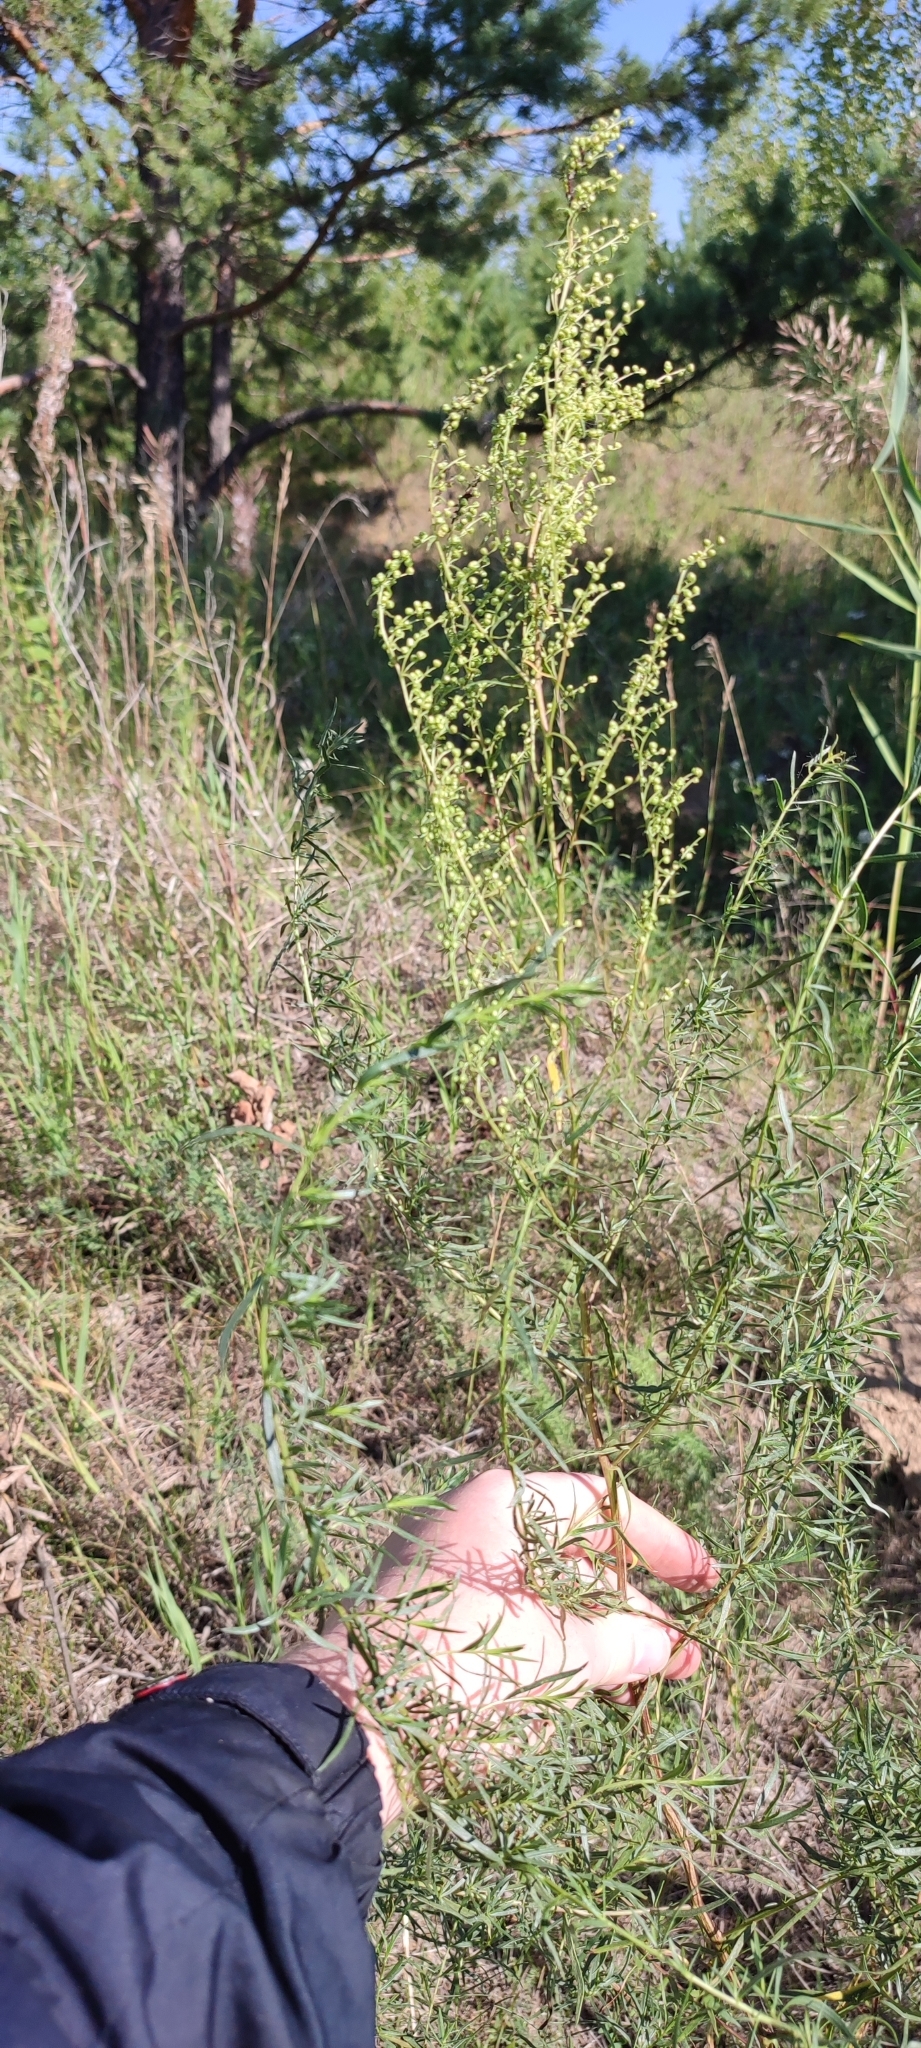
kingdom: Plantae
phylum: Tracheophyta
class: Magnoliopsida
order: Asterales
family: Asteraceae
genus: Artemisia
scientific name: Artemisia dracunculus
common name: Tarragon
